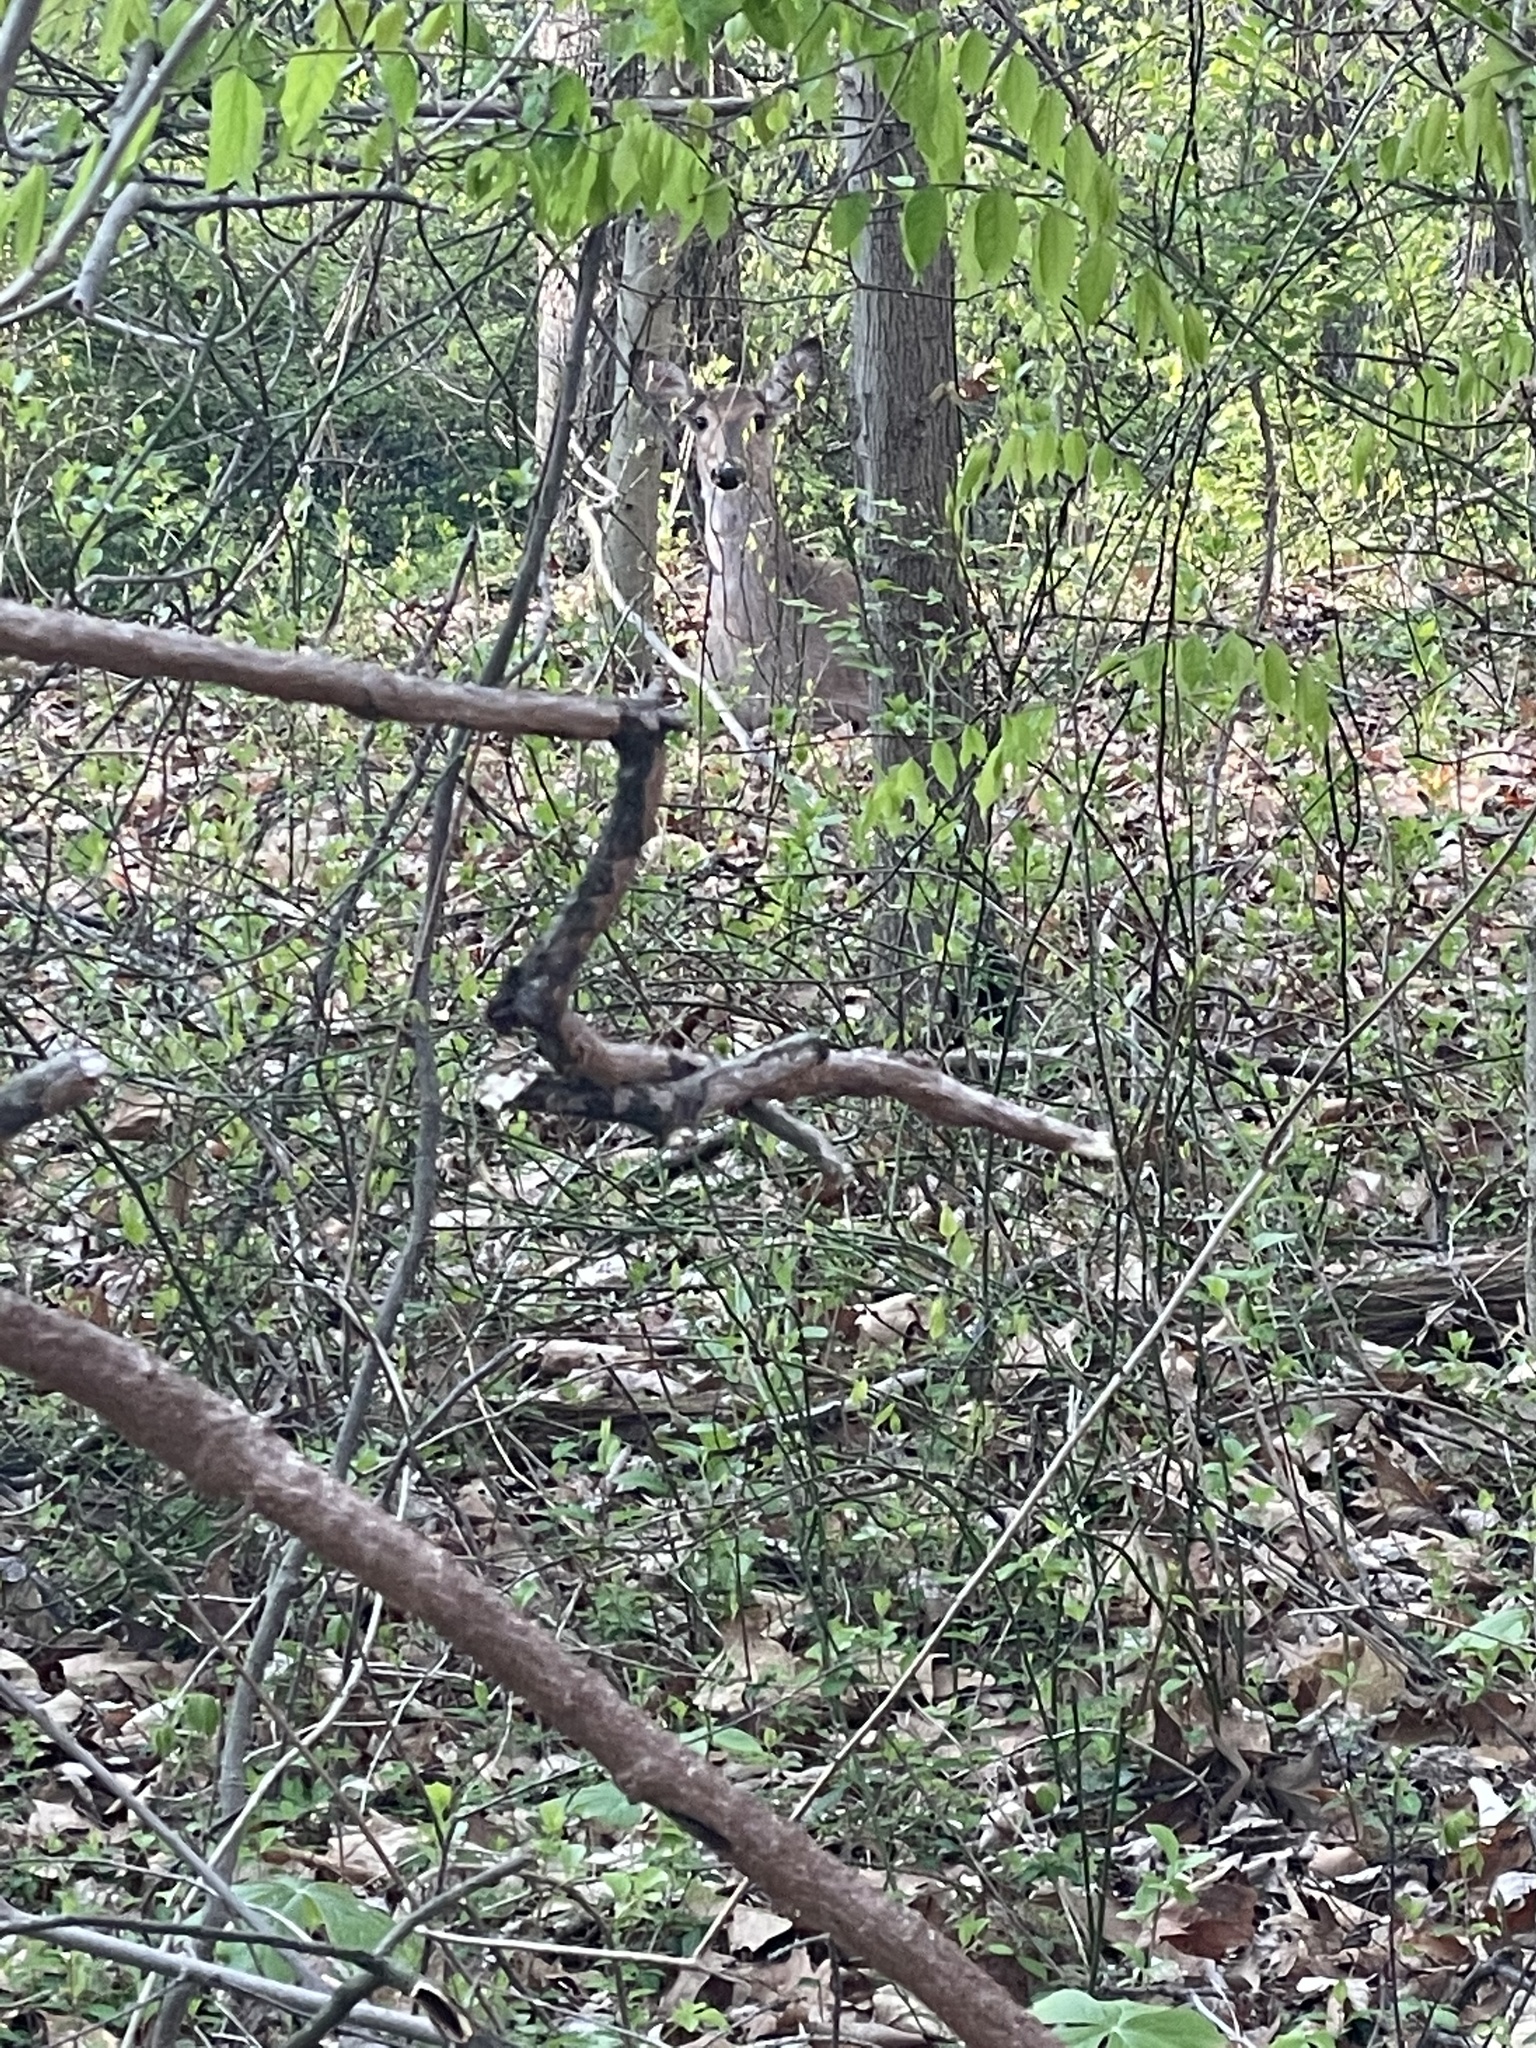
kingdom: Animalia
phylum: Chordata
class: Mammalia
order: Artiodactyla
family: Cervidae
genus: Odocoileus
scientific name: Odocoileus virginianus
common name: White-tailed deer
